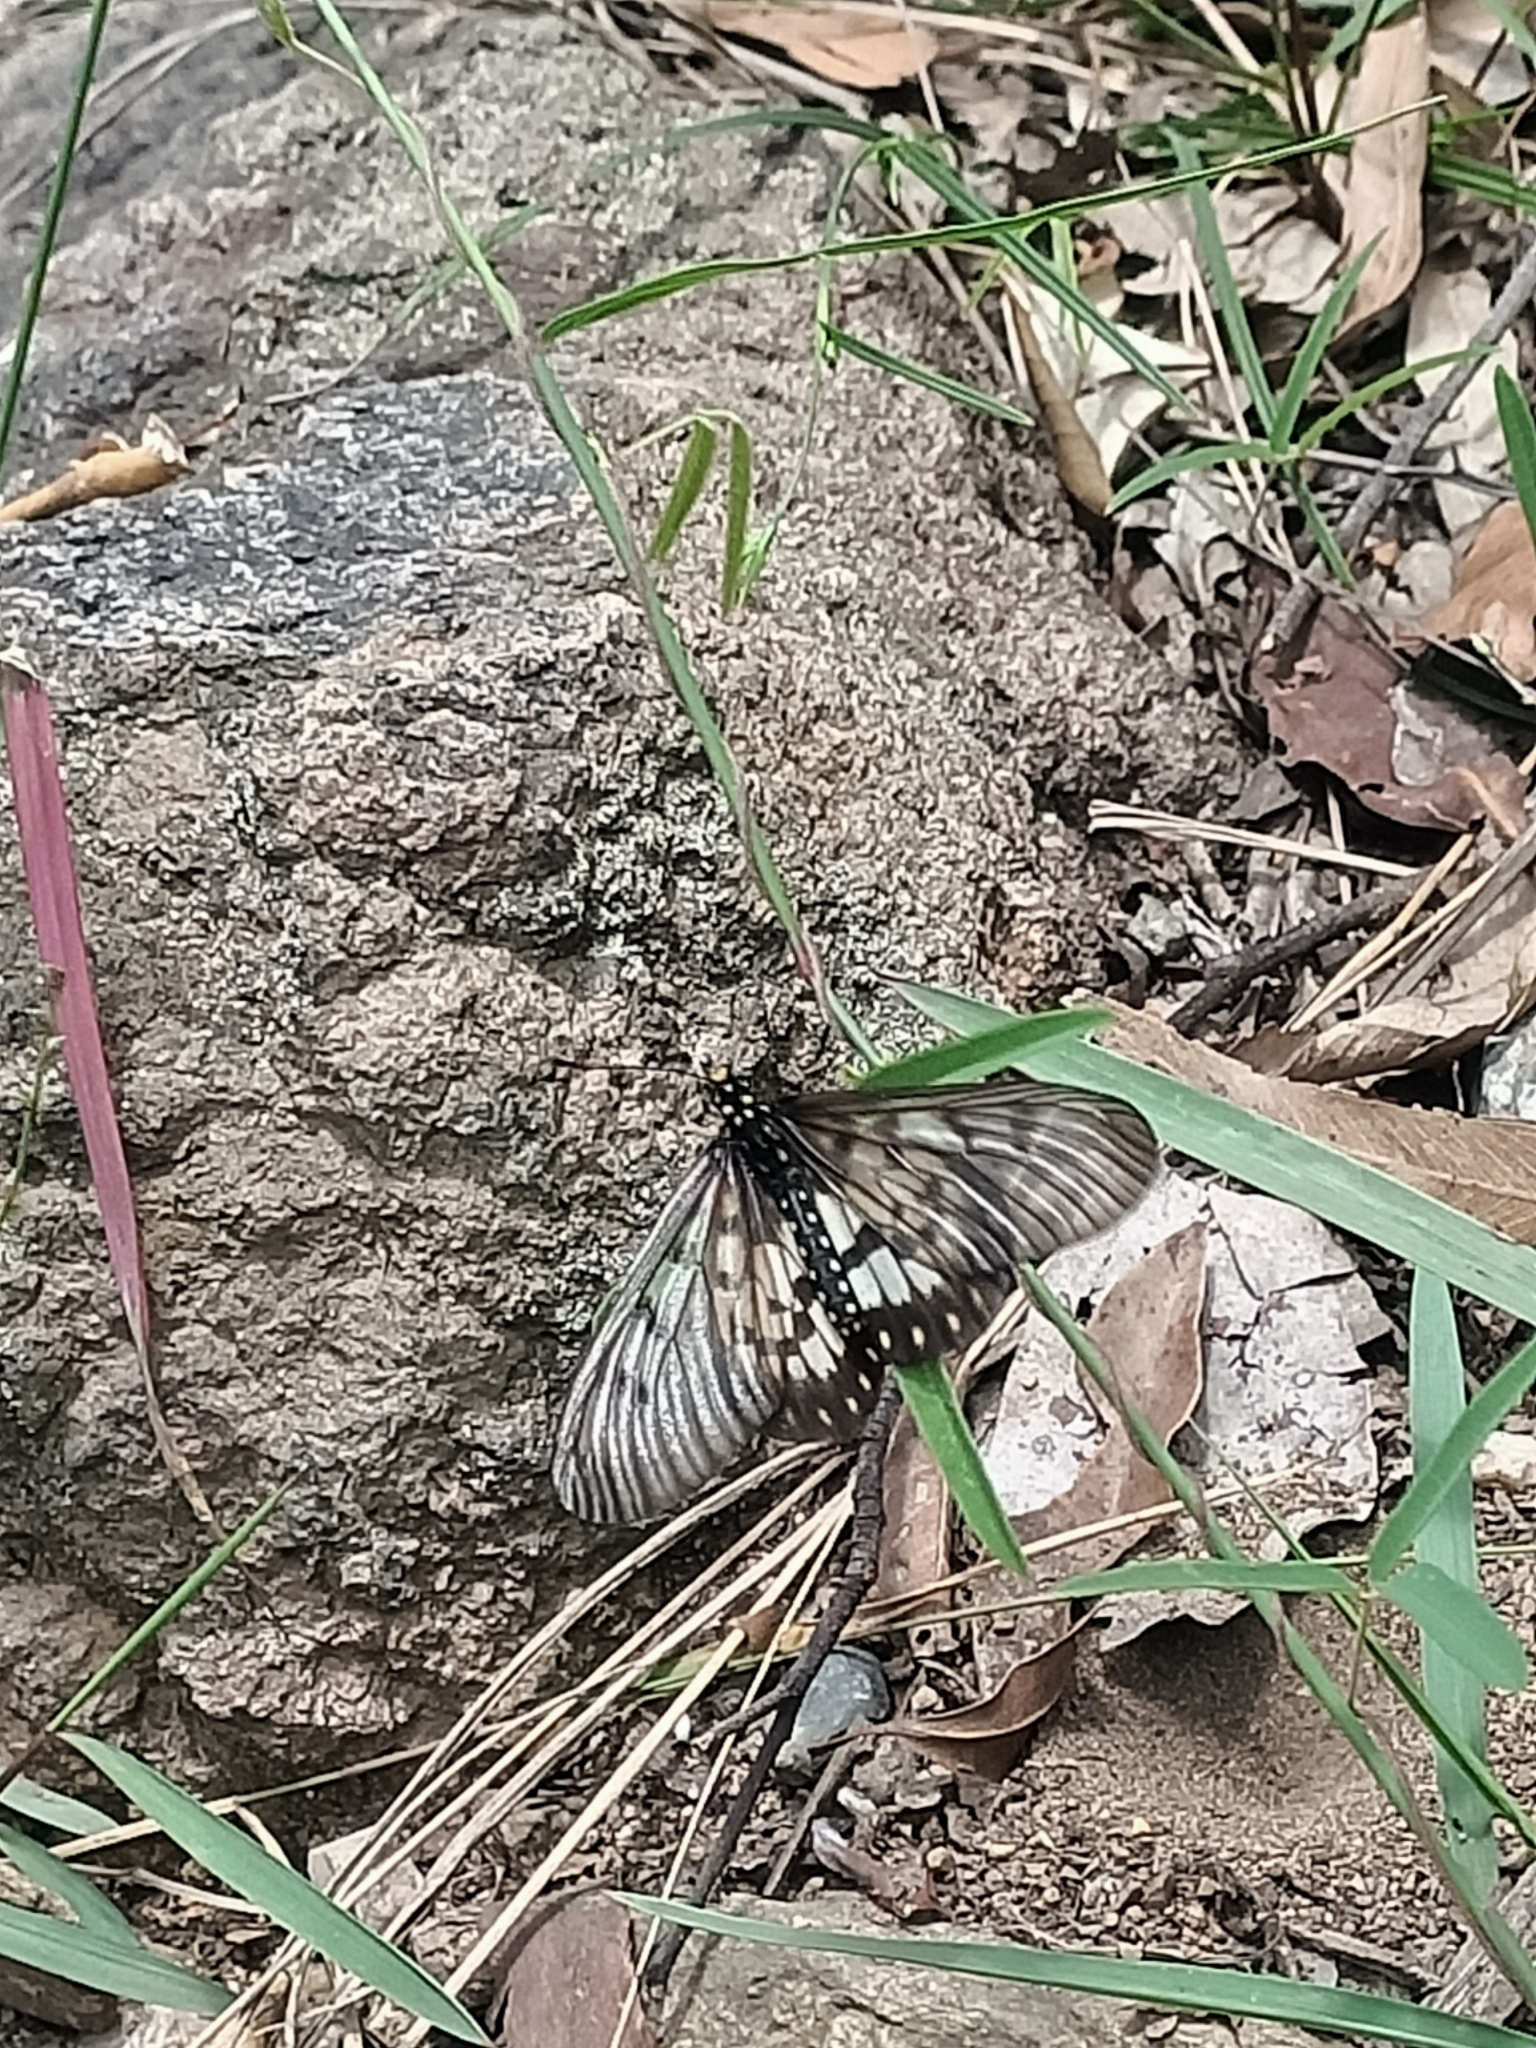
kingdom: Animalia
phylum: Arthropoda
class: Insecta
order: Lepidoptera
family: Nymphalidae
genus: Acraea
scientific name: Acraea andromacha
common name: Glasswing
